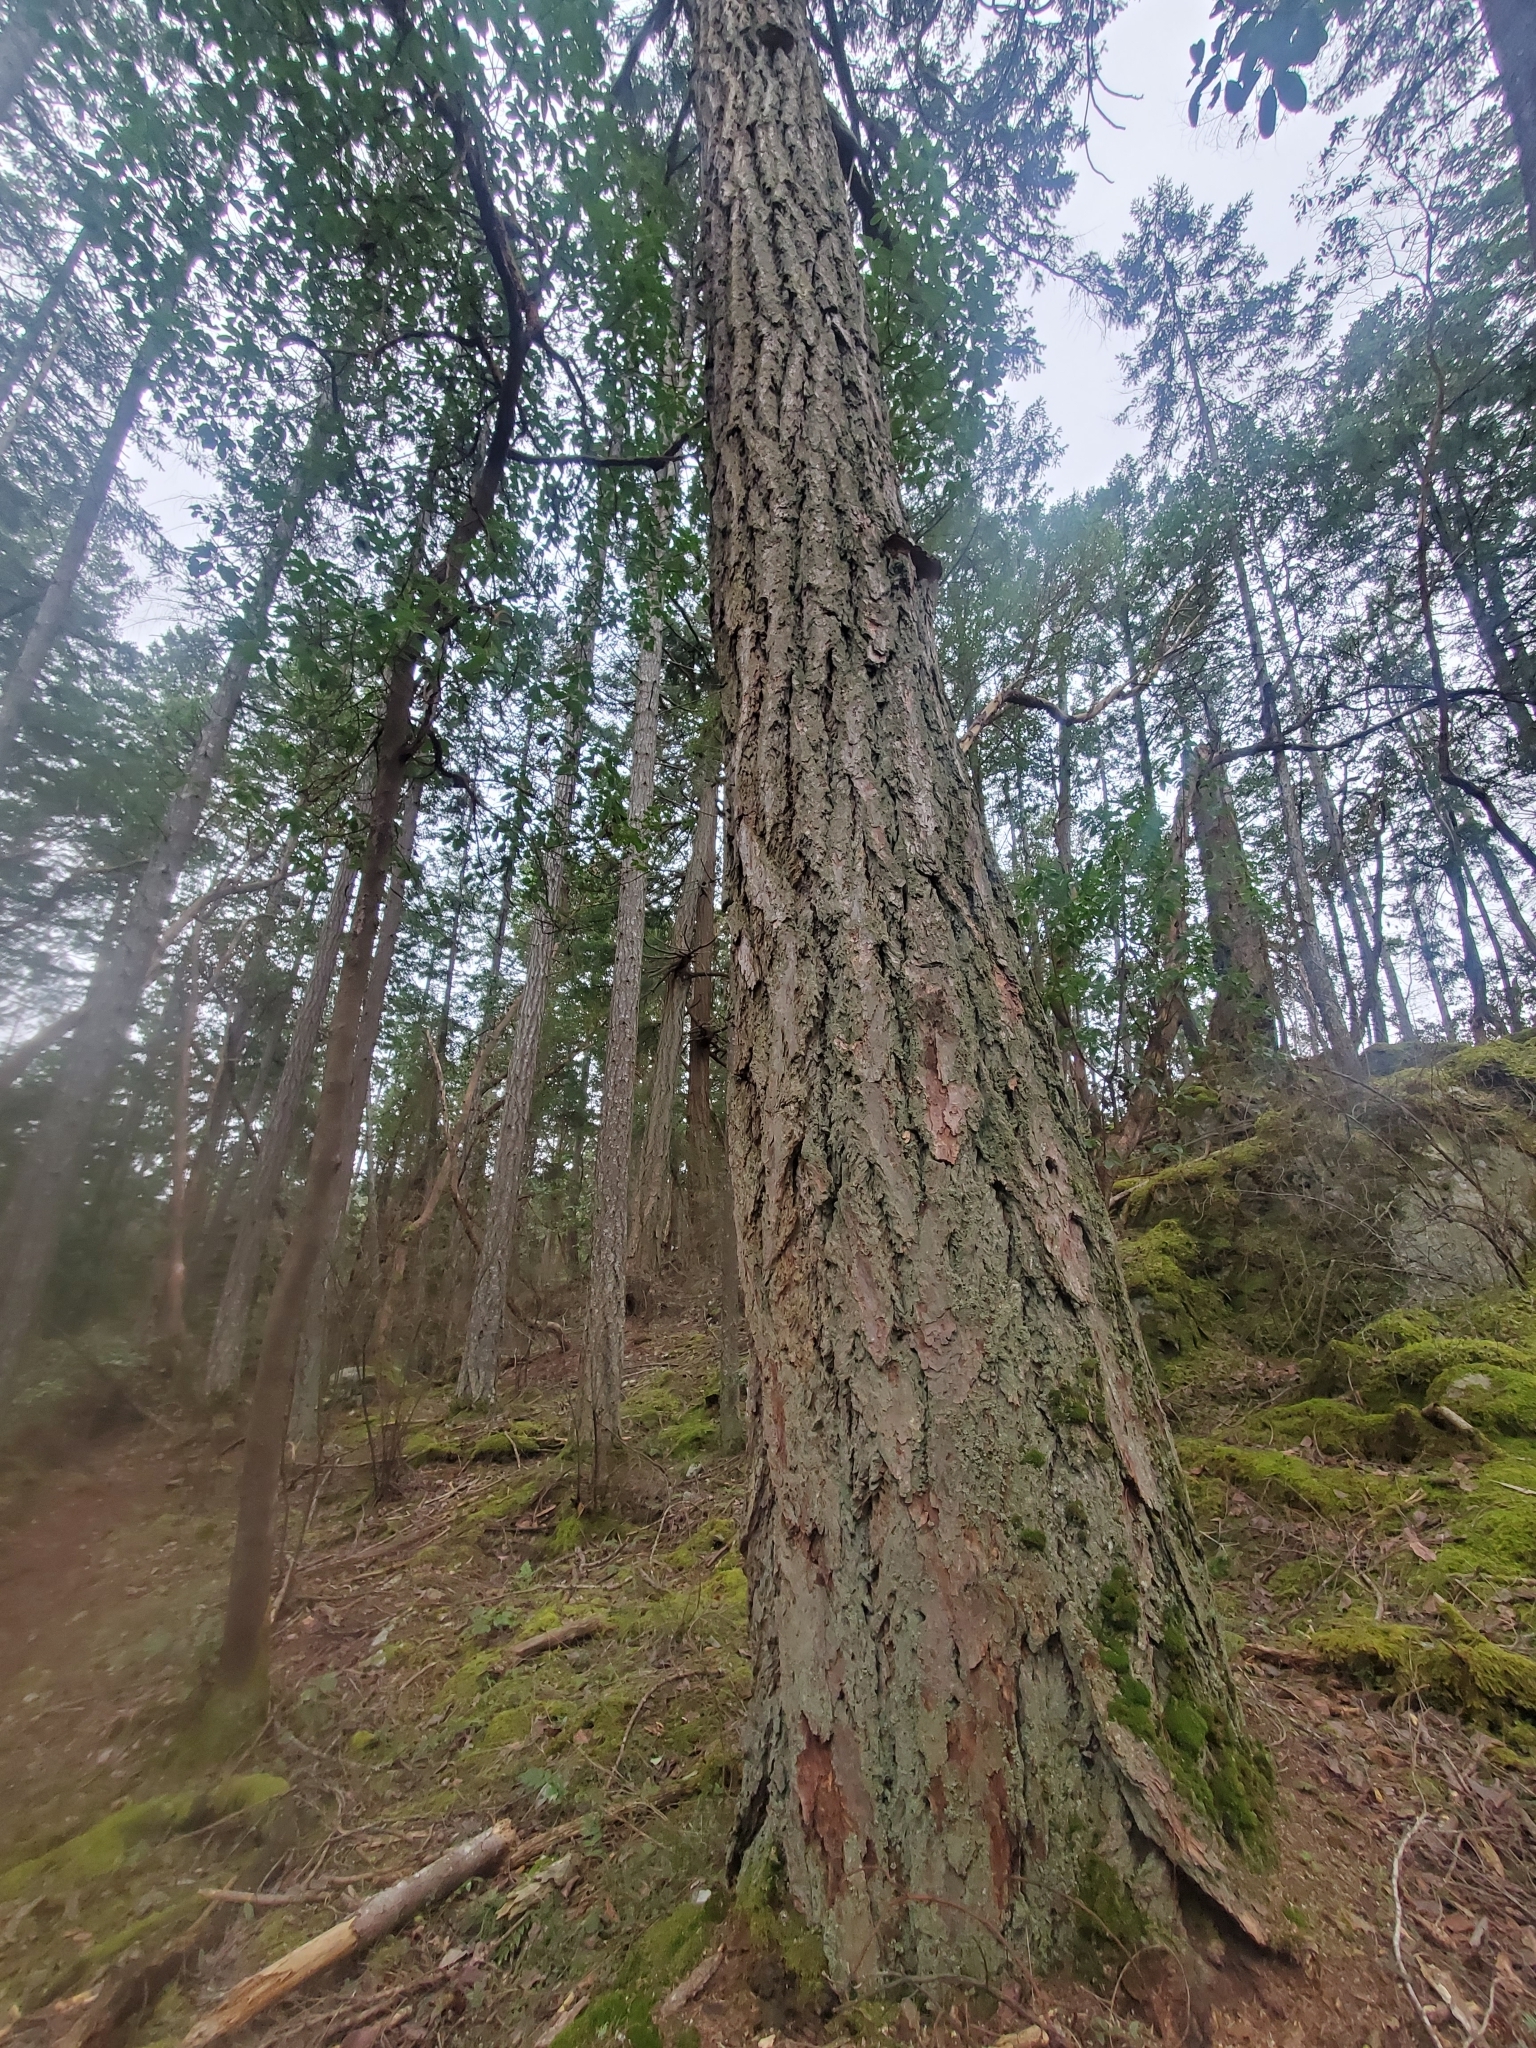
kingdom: Plantae
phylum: Tracheophyta
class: Pinopsida
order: Pinales
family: Pinaceae
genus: Pseudotsuga
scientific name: Pseudotsuga menziesii
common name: Douglas fir
